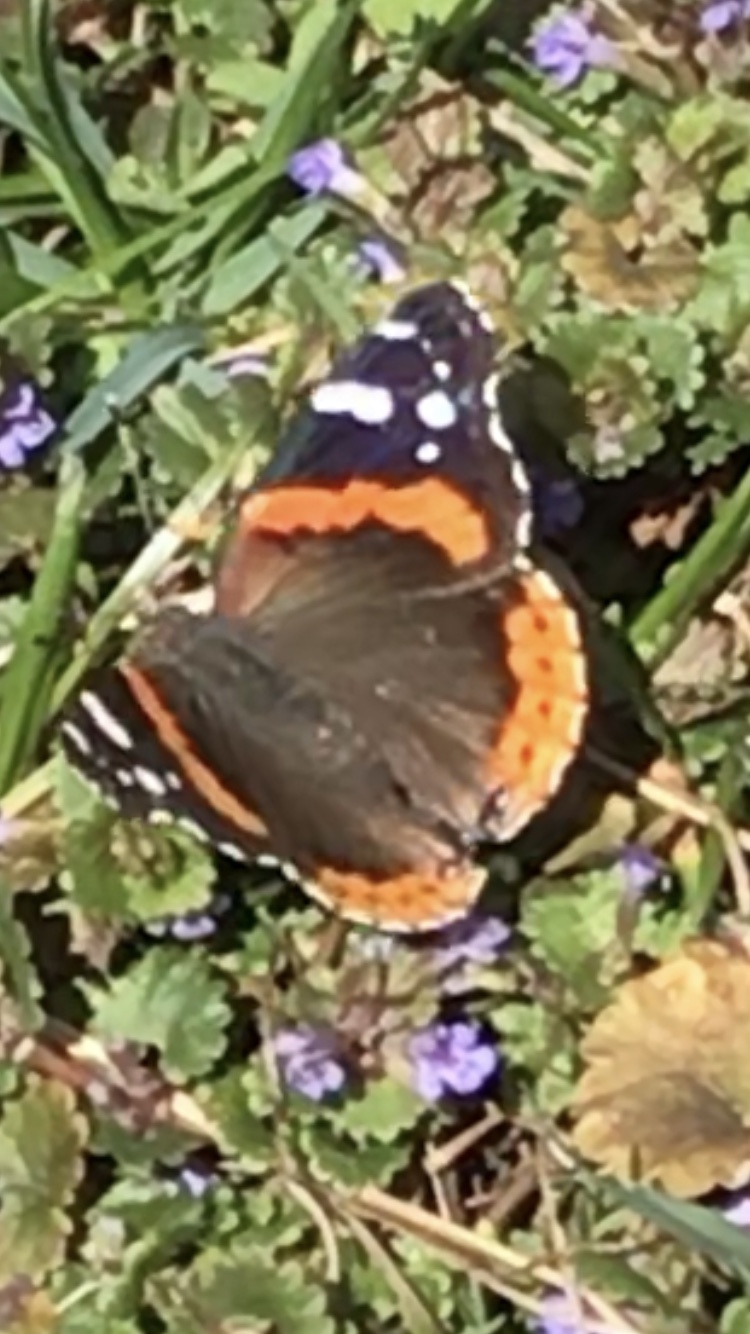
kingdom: Animalia
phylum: Arthropoda
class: Insecta
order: Lepidoptera
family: Nymphalidae
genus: Vanessa
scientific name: Vanessa atalanta
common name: Red admiral
